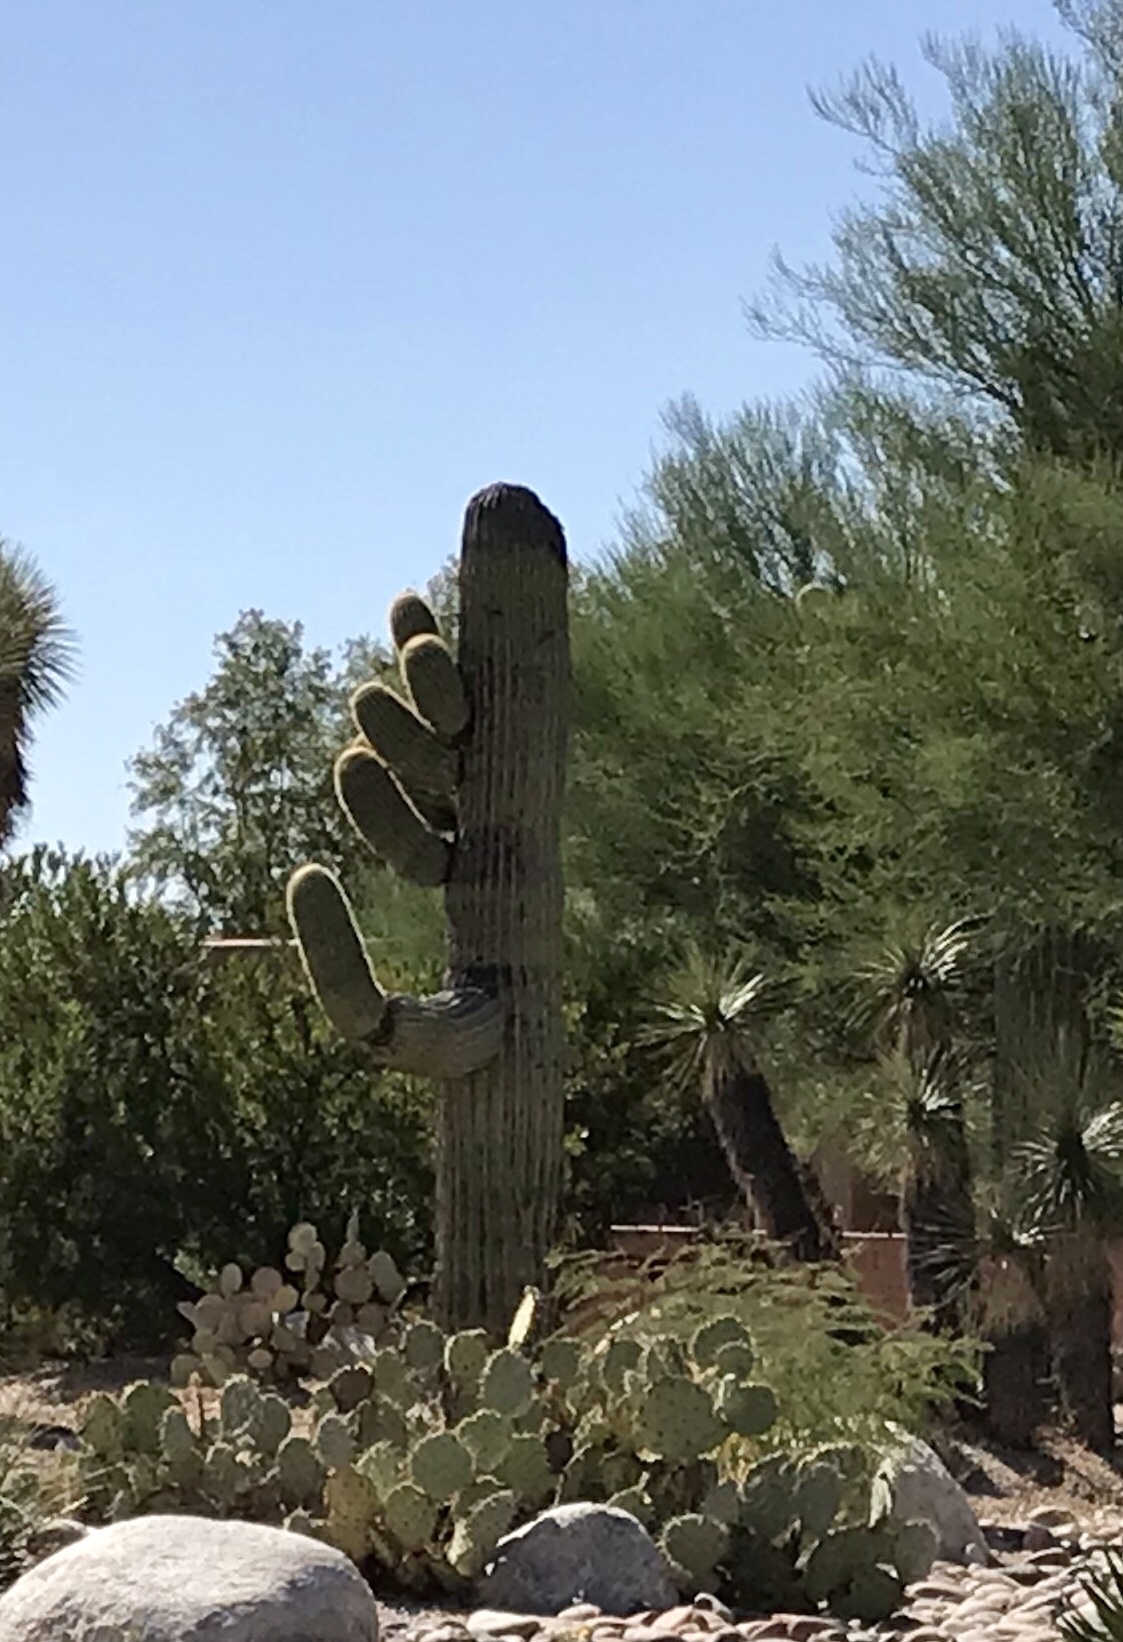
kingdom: Plantae
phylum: Tracheophyta
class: Magnoliopsida
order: Caryophyllales
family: Cactaceae
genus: Carnegiea
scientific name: Carnegiea gigantea
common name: Saguaro
